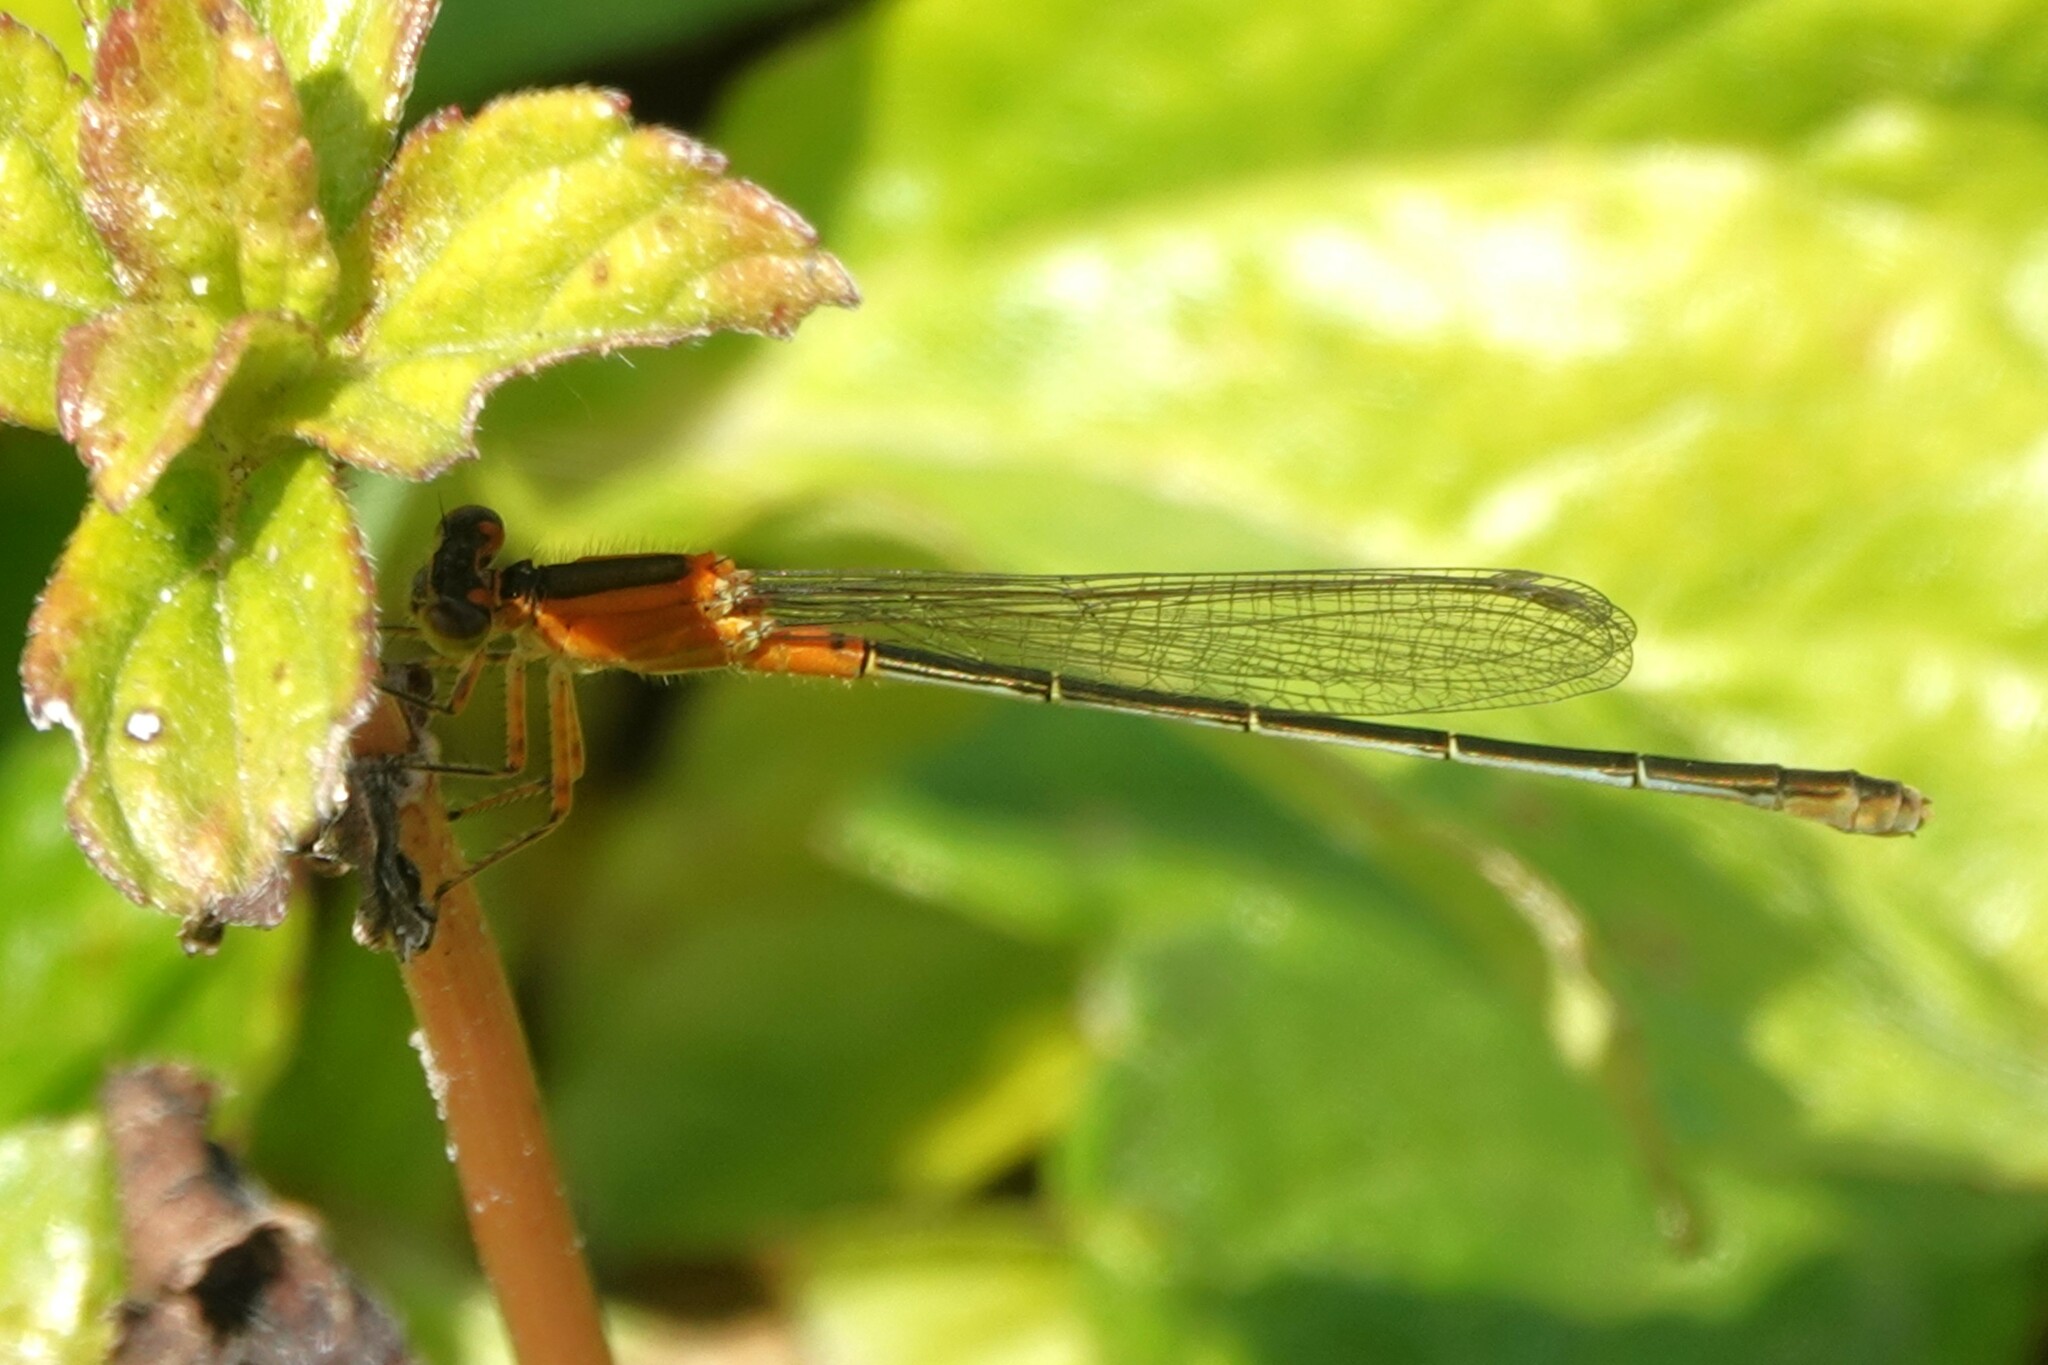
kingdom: Animalia
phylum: Arthropoda
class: Insecta
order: Odonata
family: Coenagrionidae
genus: Ischnura
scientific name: Ischnura ramburii
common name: Rambur's forktail
